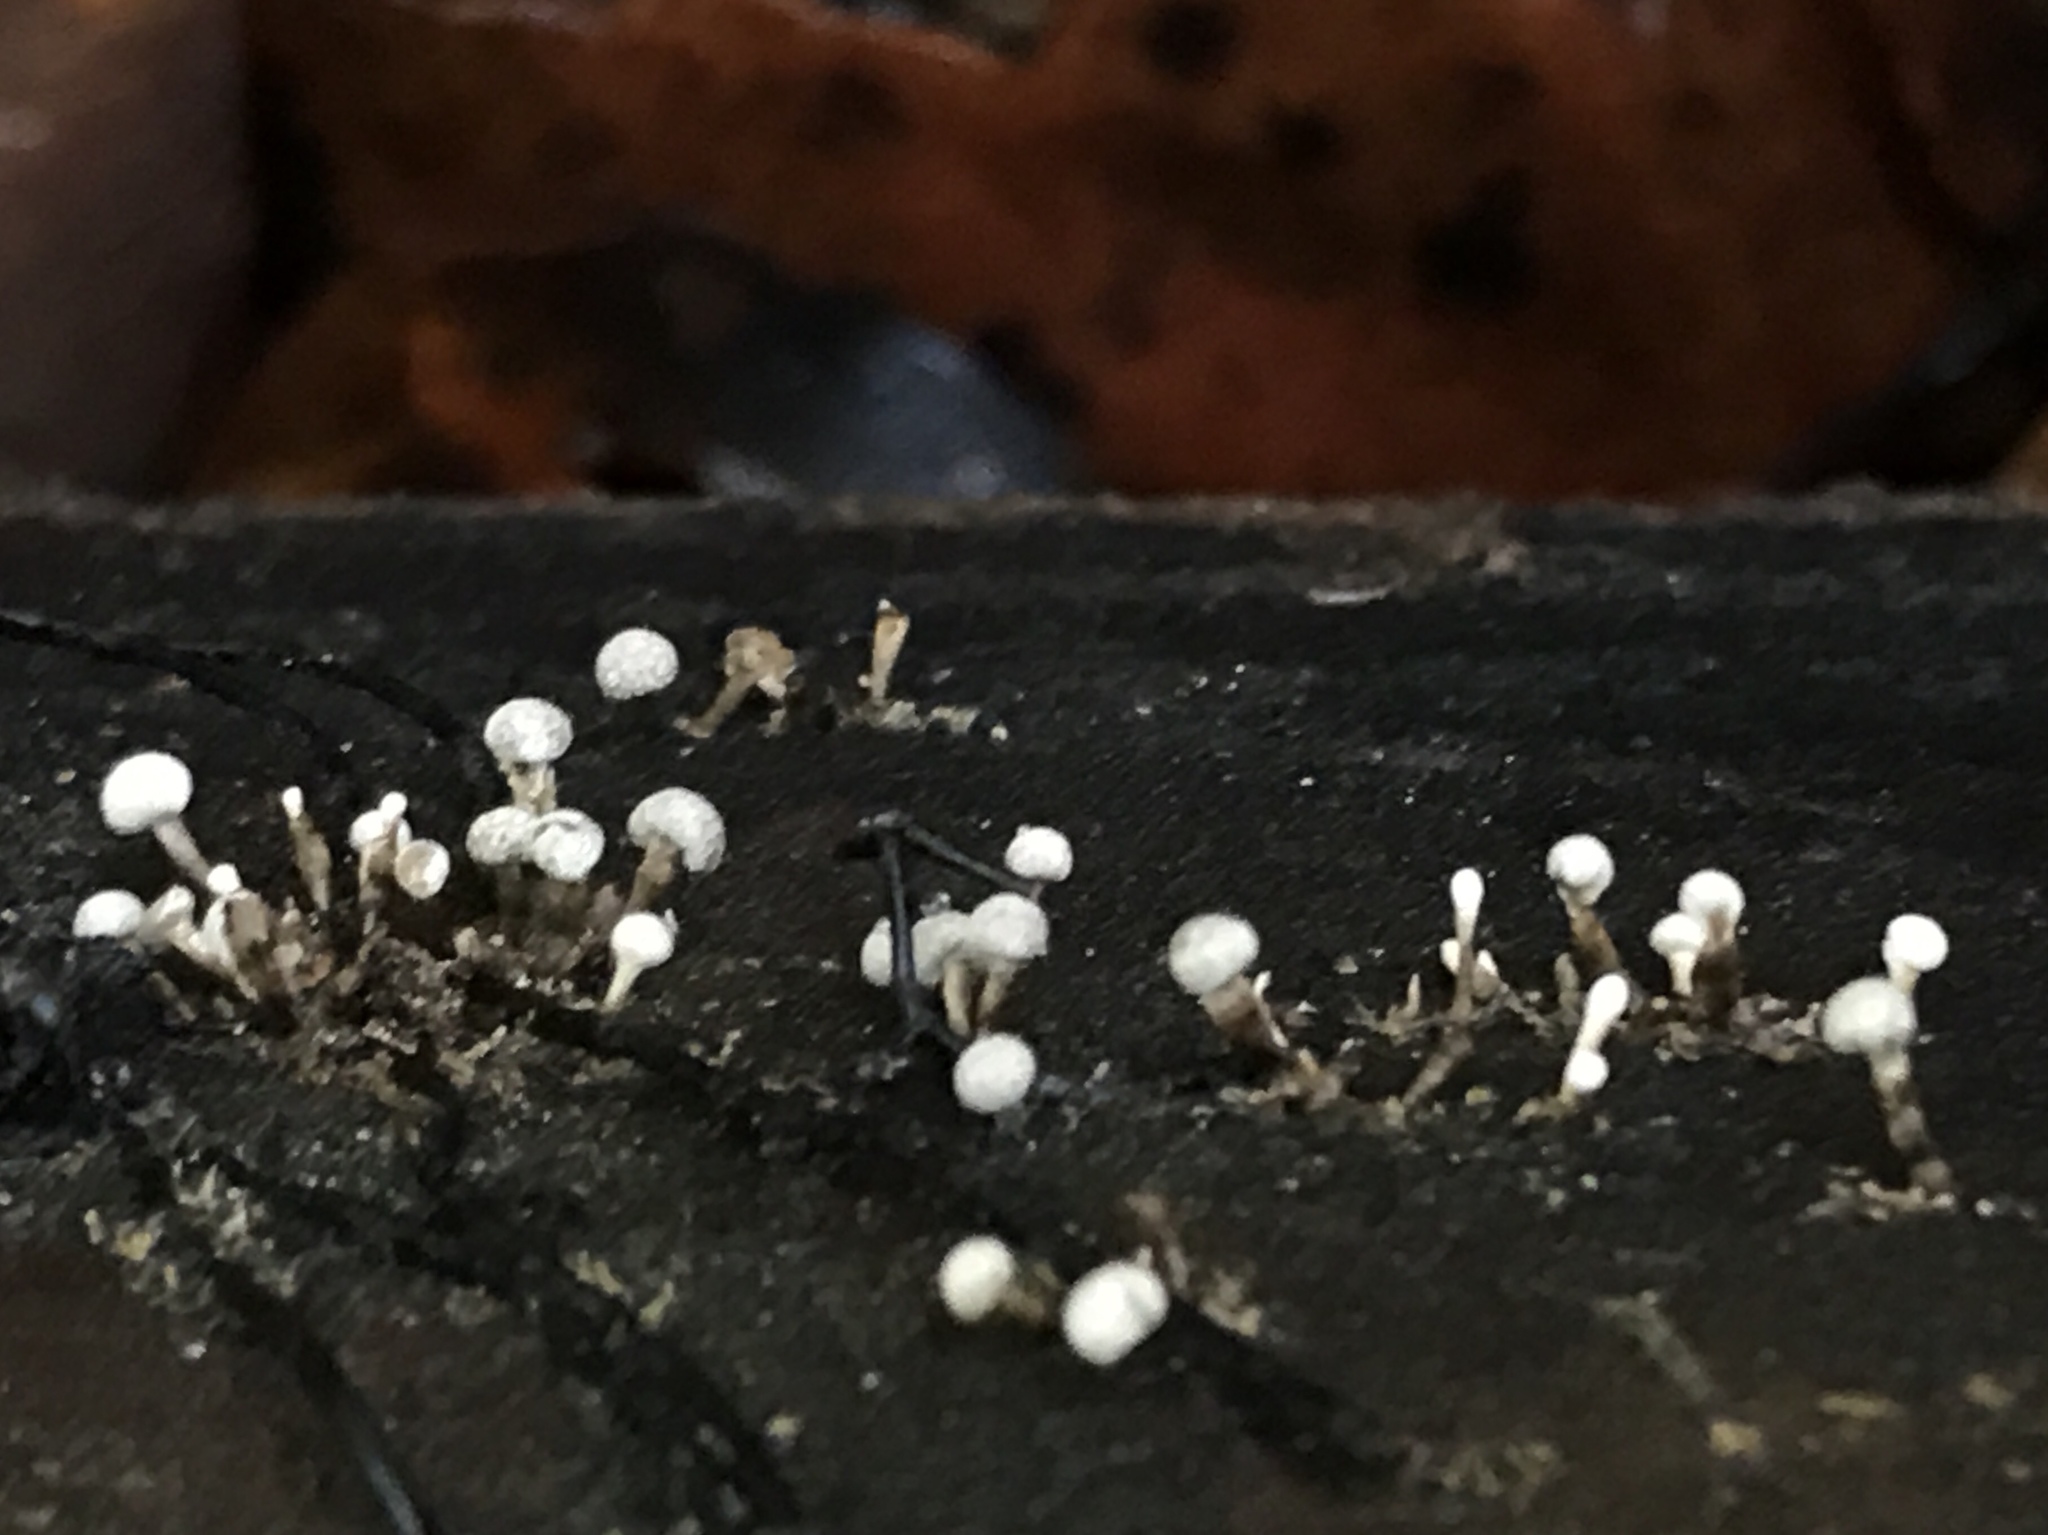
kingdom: Fungi
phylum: Basidiomycota
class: Atractiellomycetes
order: Atractiellales
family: Phleogenaceae
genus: Phleogena
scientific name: Phleogena faginea
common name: Fenugreek stalkball
